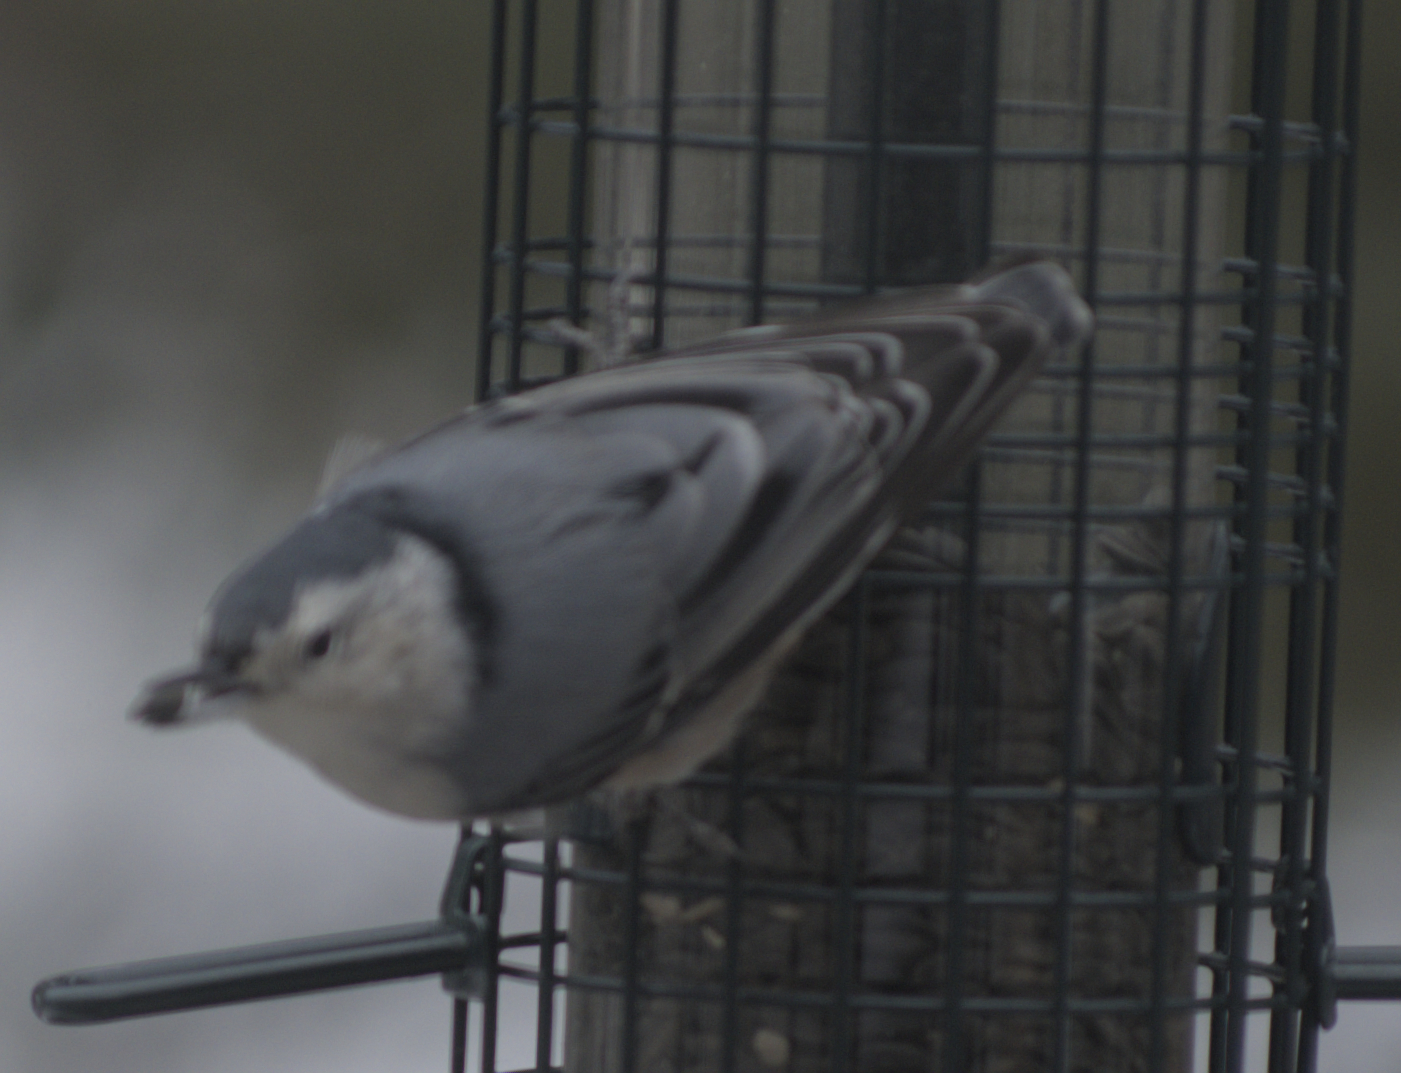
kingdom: Animalia
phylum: Chordata
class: Aves
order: Passeriformes
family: Sittidae
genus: Sitta
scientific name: Sitta carolinensis
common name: White-breasted nuthatch
